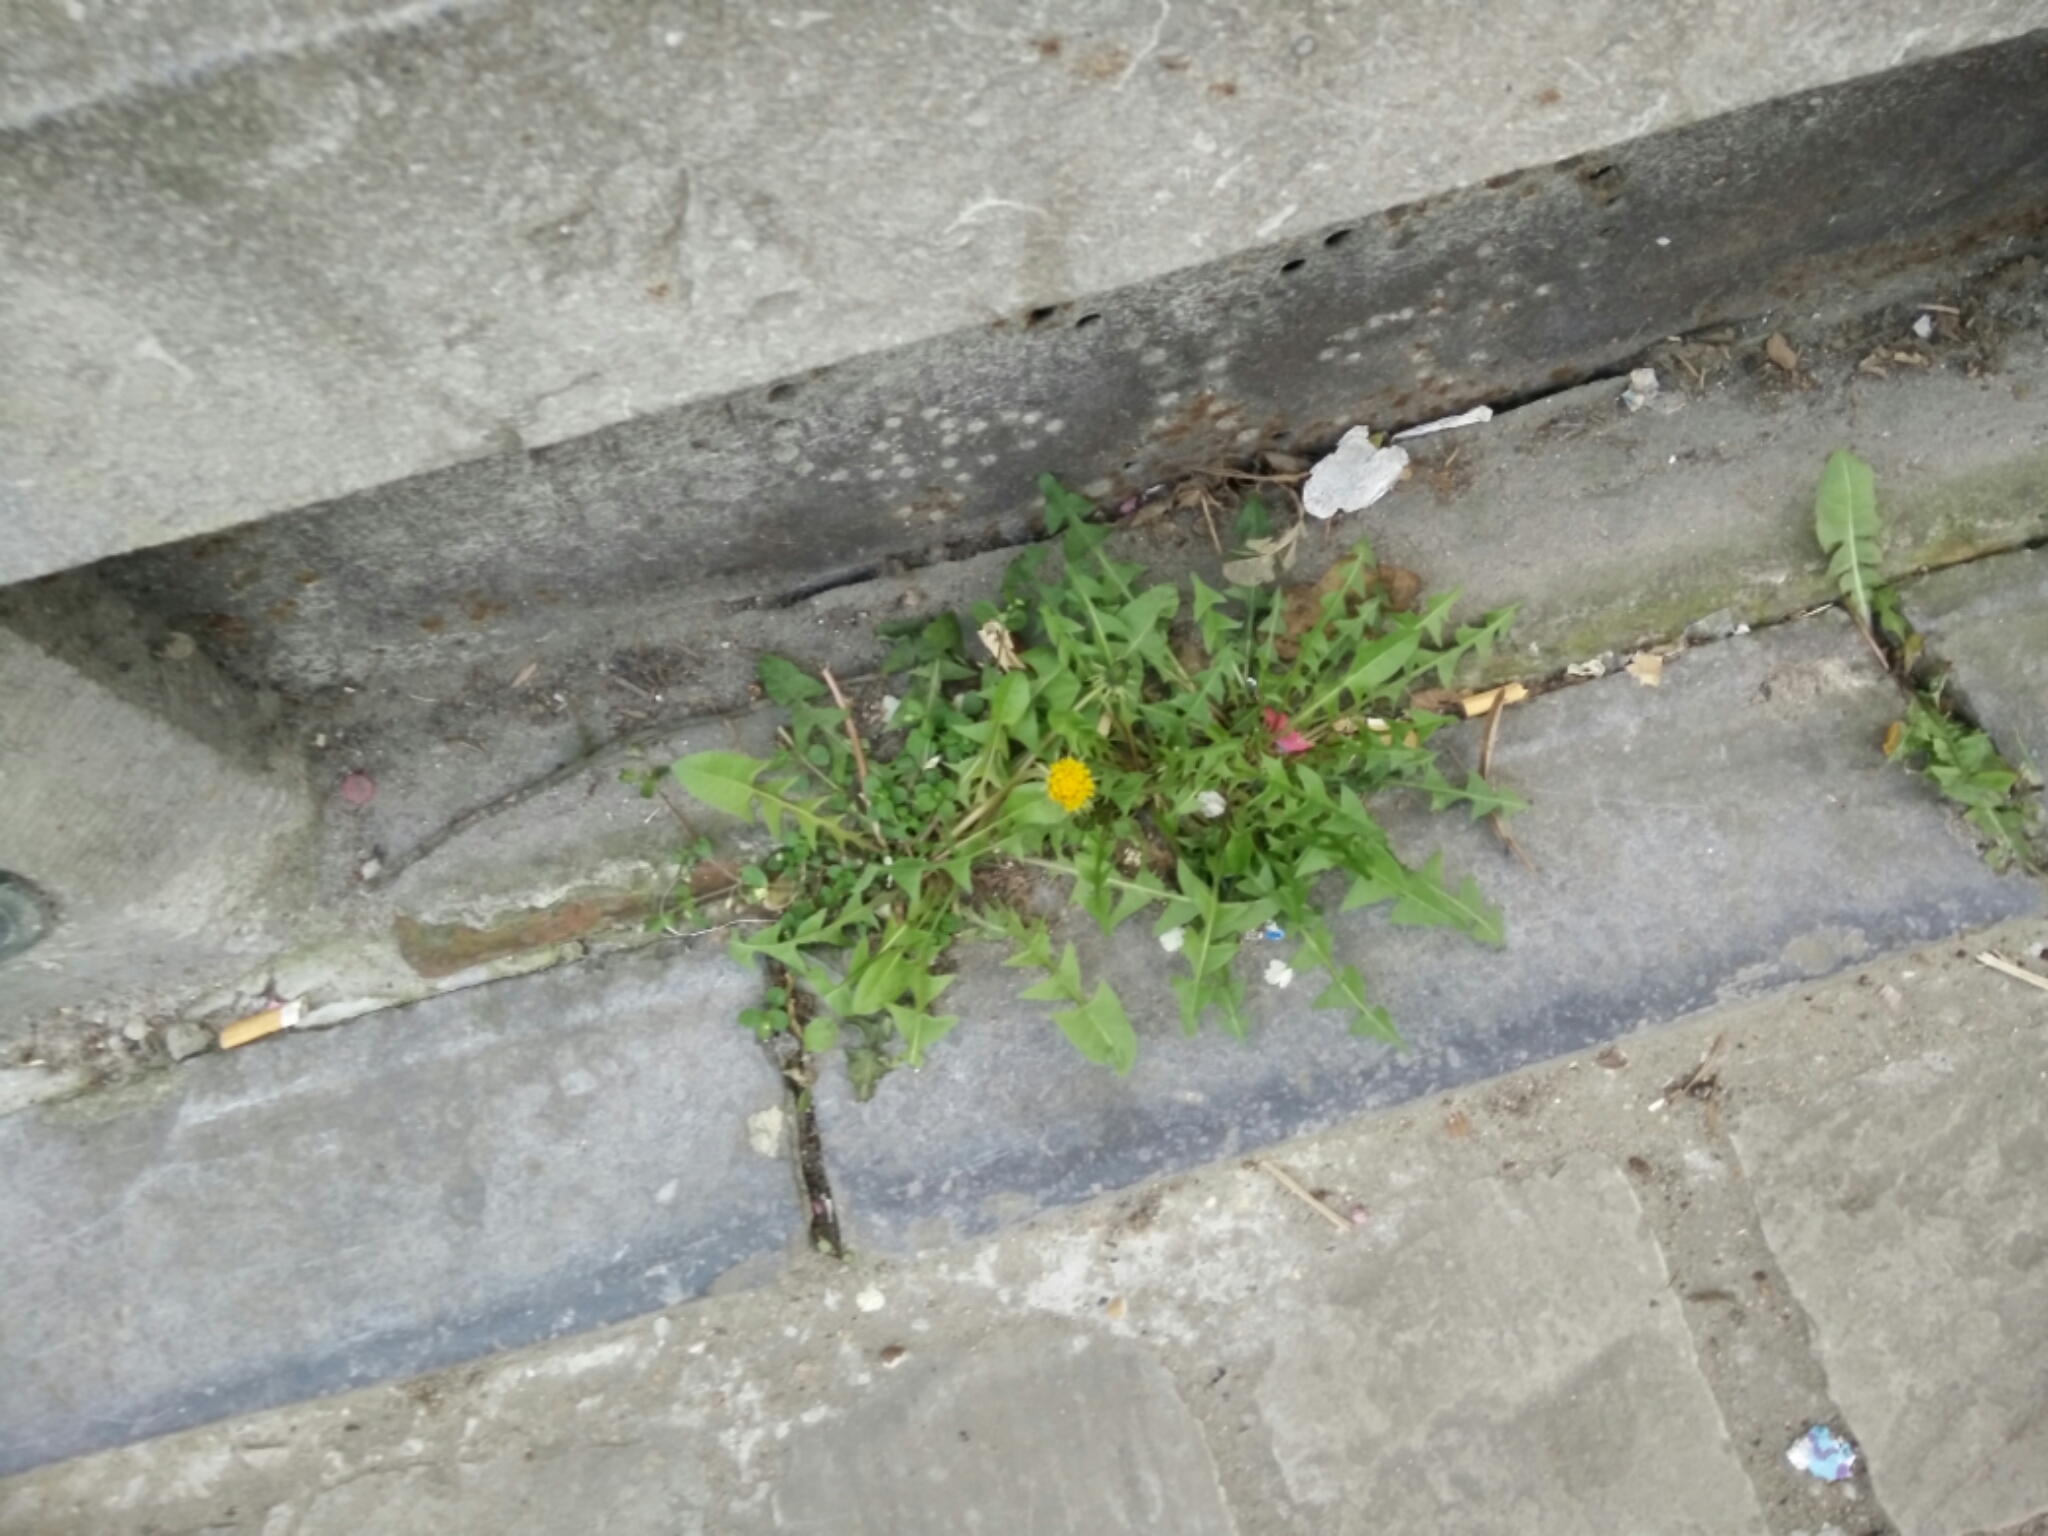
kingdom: Plantae
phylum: Tracheophyta
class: Magnoliopsida
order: Asterales
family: Asteraceae
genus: Taraxacum
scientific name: Taraxacum officinale
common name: Common dandelion
